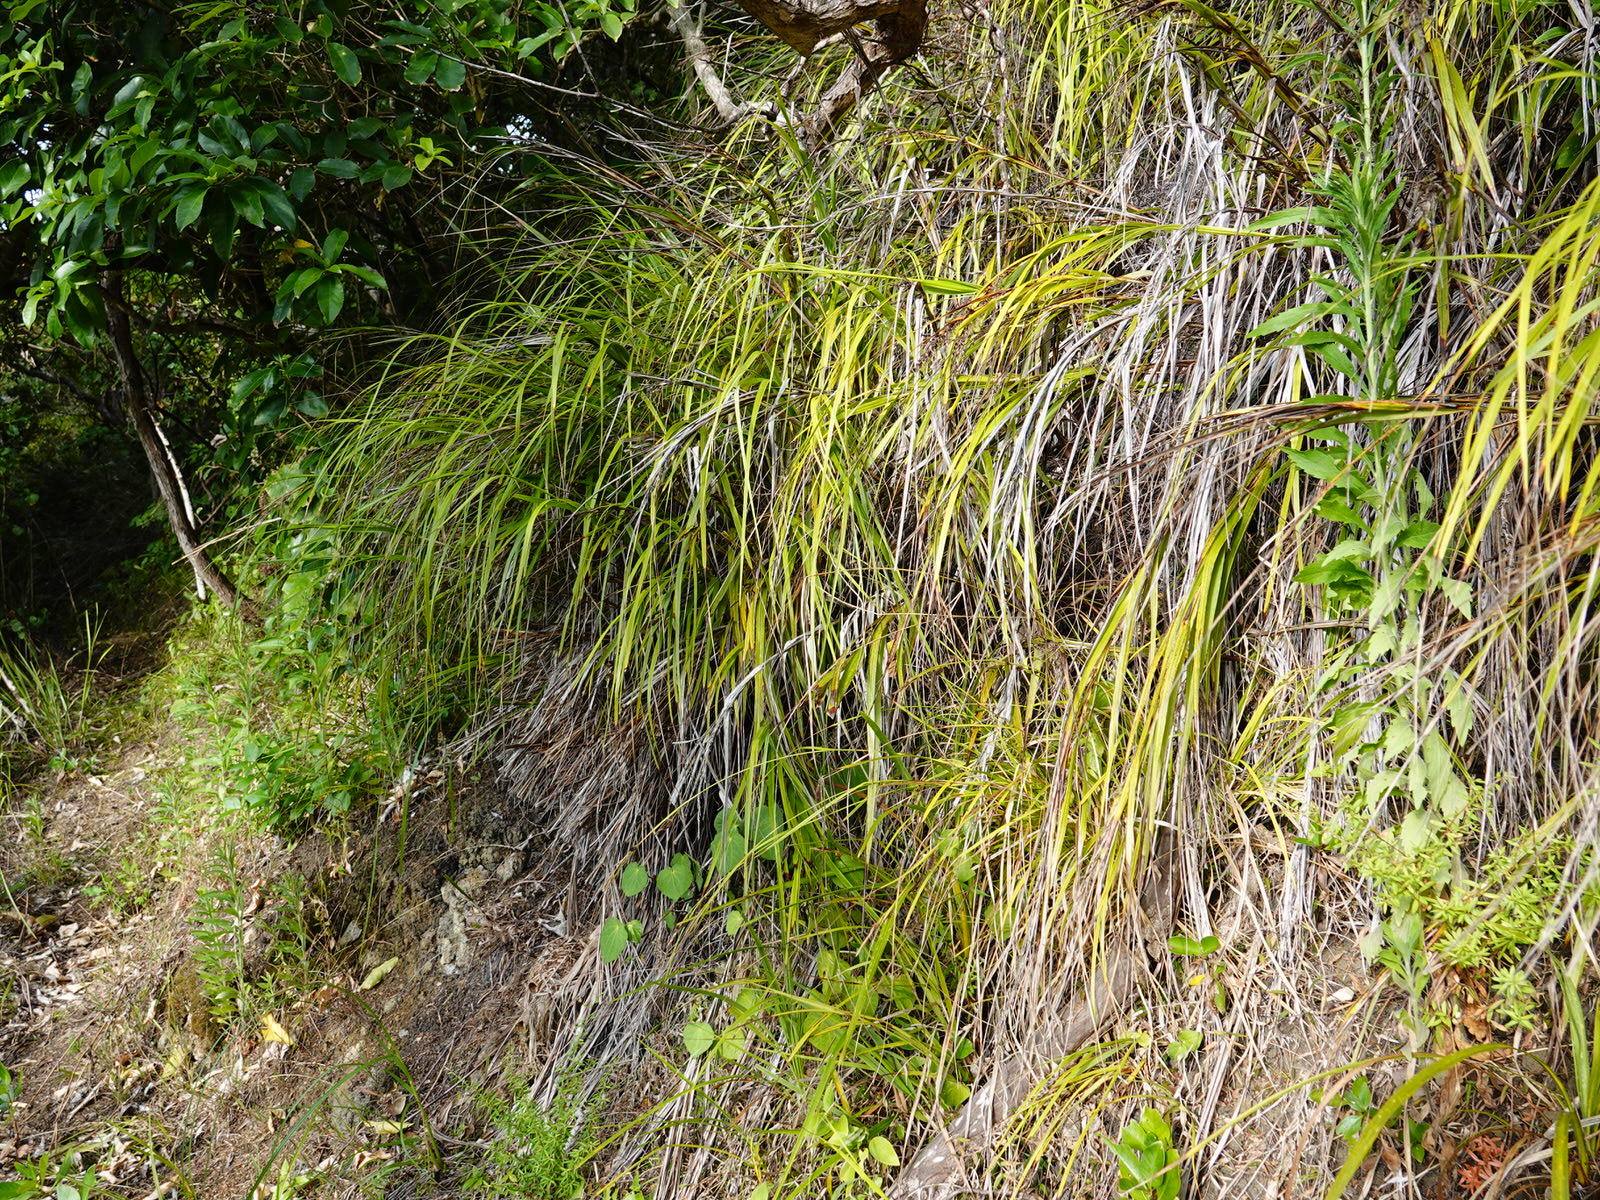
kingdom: Plantae
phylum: Tracheophyta
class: Liliopsida
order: Poales
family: Cyperaceae
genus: Gahnia
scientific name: Gahnia lacera
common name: Sawsedge
